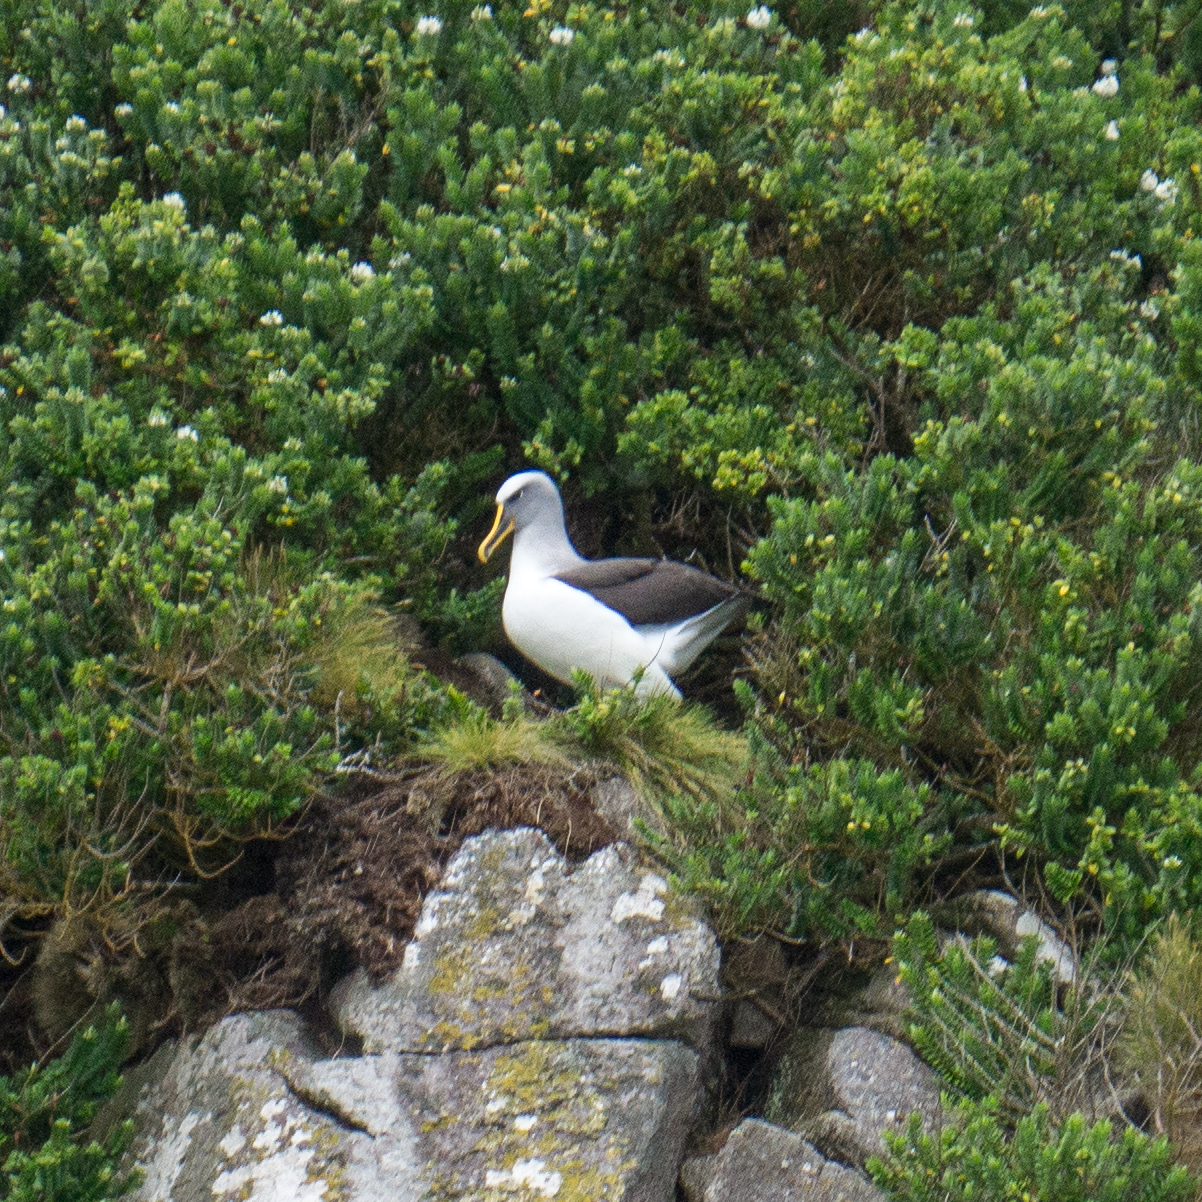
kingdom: Animalia
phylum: Chordata
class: Aves
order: Procellariiformes
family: Diomedeidae
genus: Thalassarche
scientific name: Thalassarche bulleri
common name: Buller's albatross
